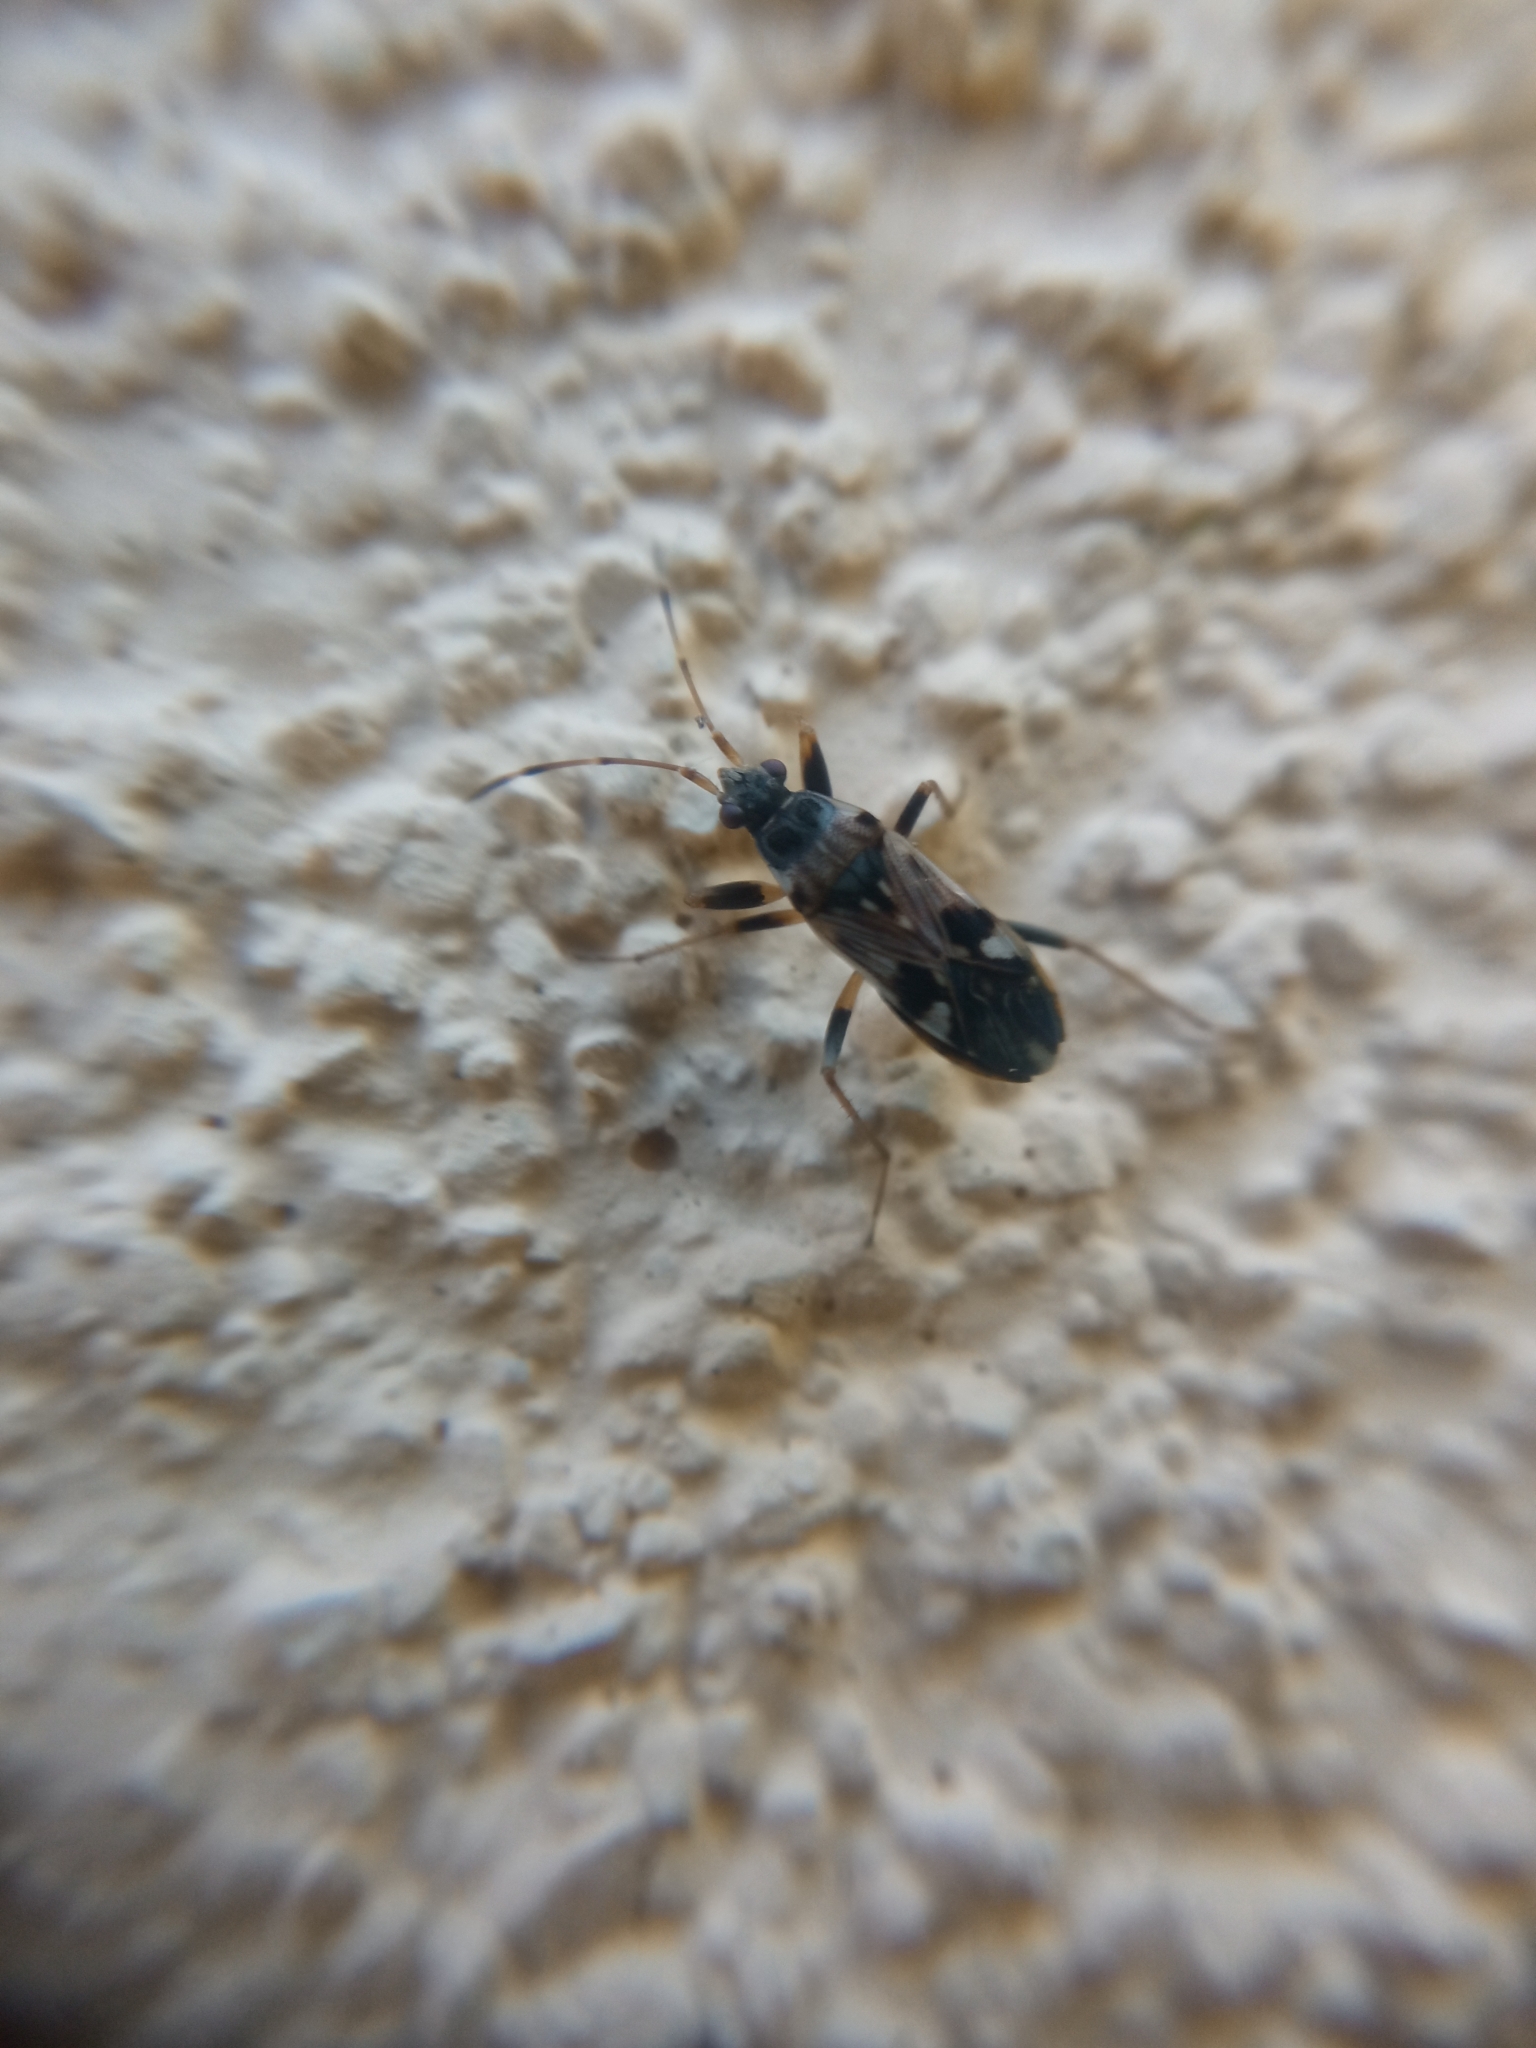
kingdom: Animalia
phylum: Arthropoda
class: Insecta
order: Hemiptera
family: Rhyparochromidae
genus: Beosus
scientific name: Beosus maritimus
